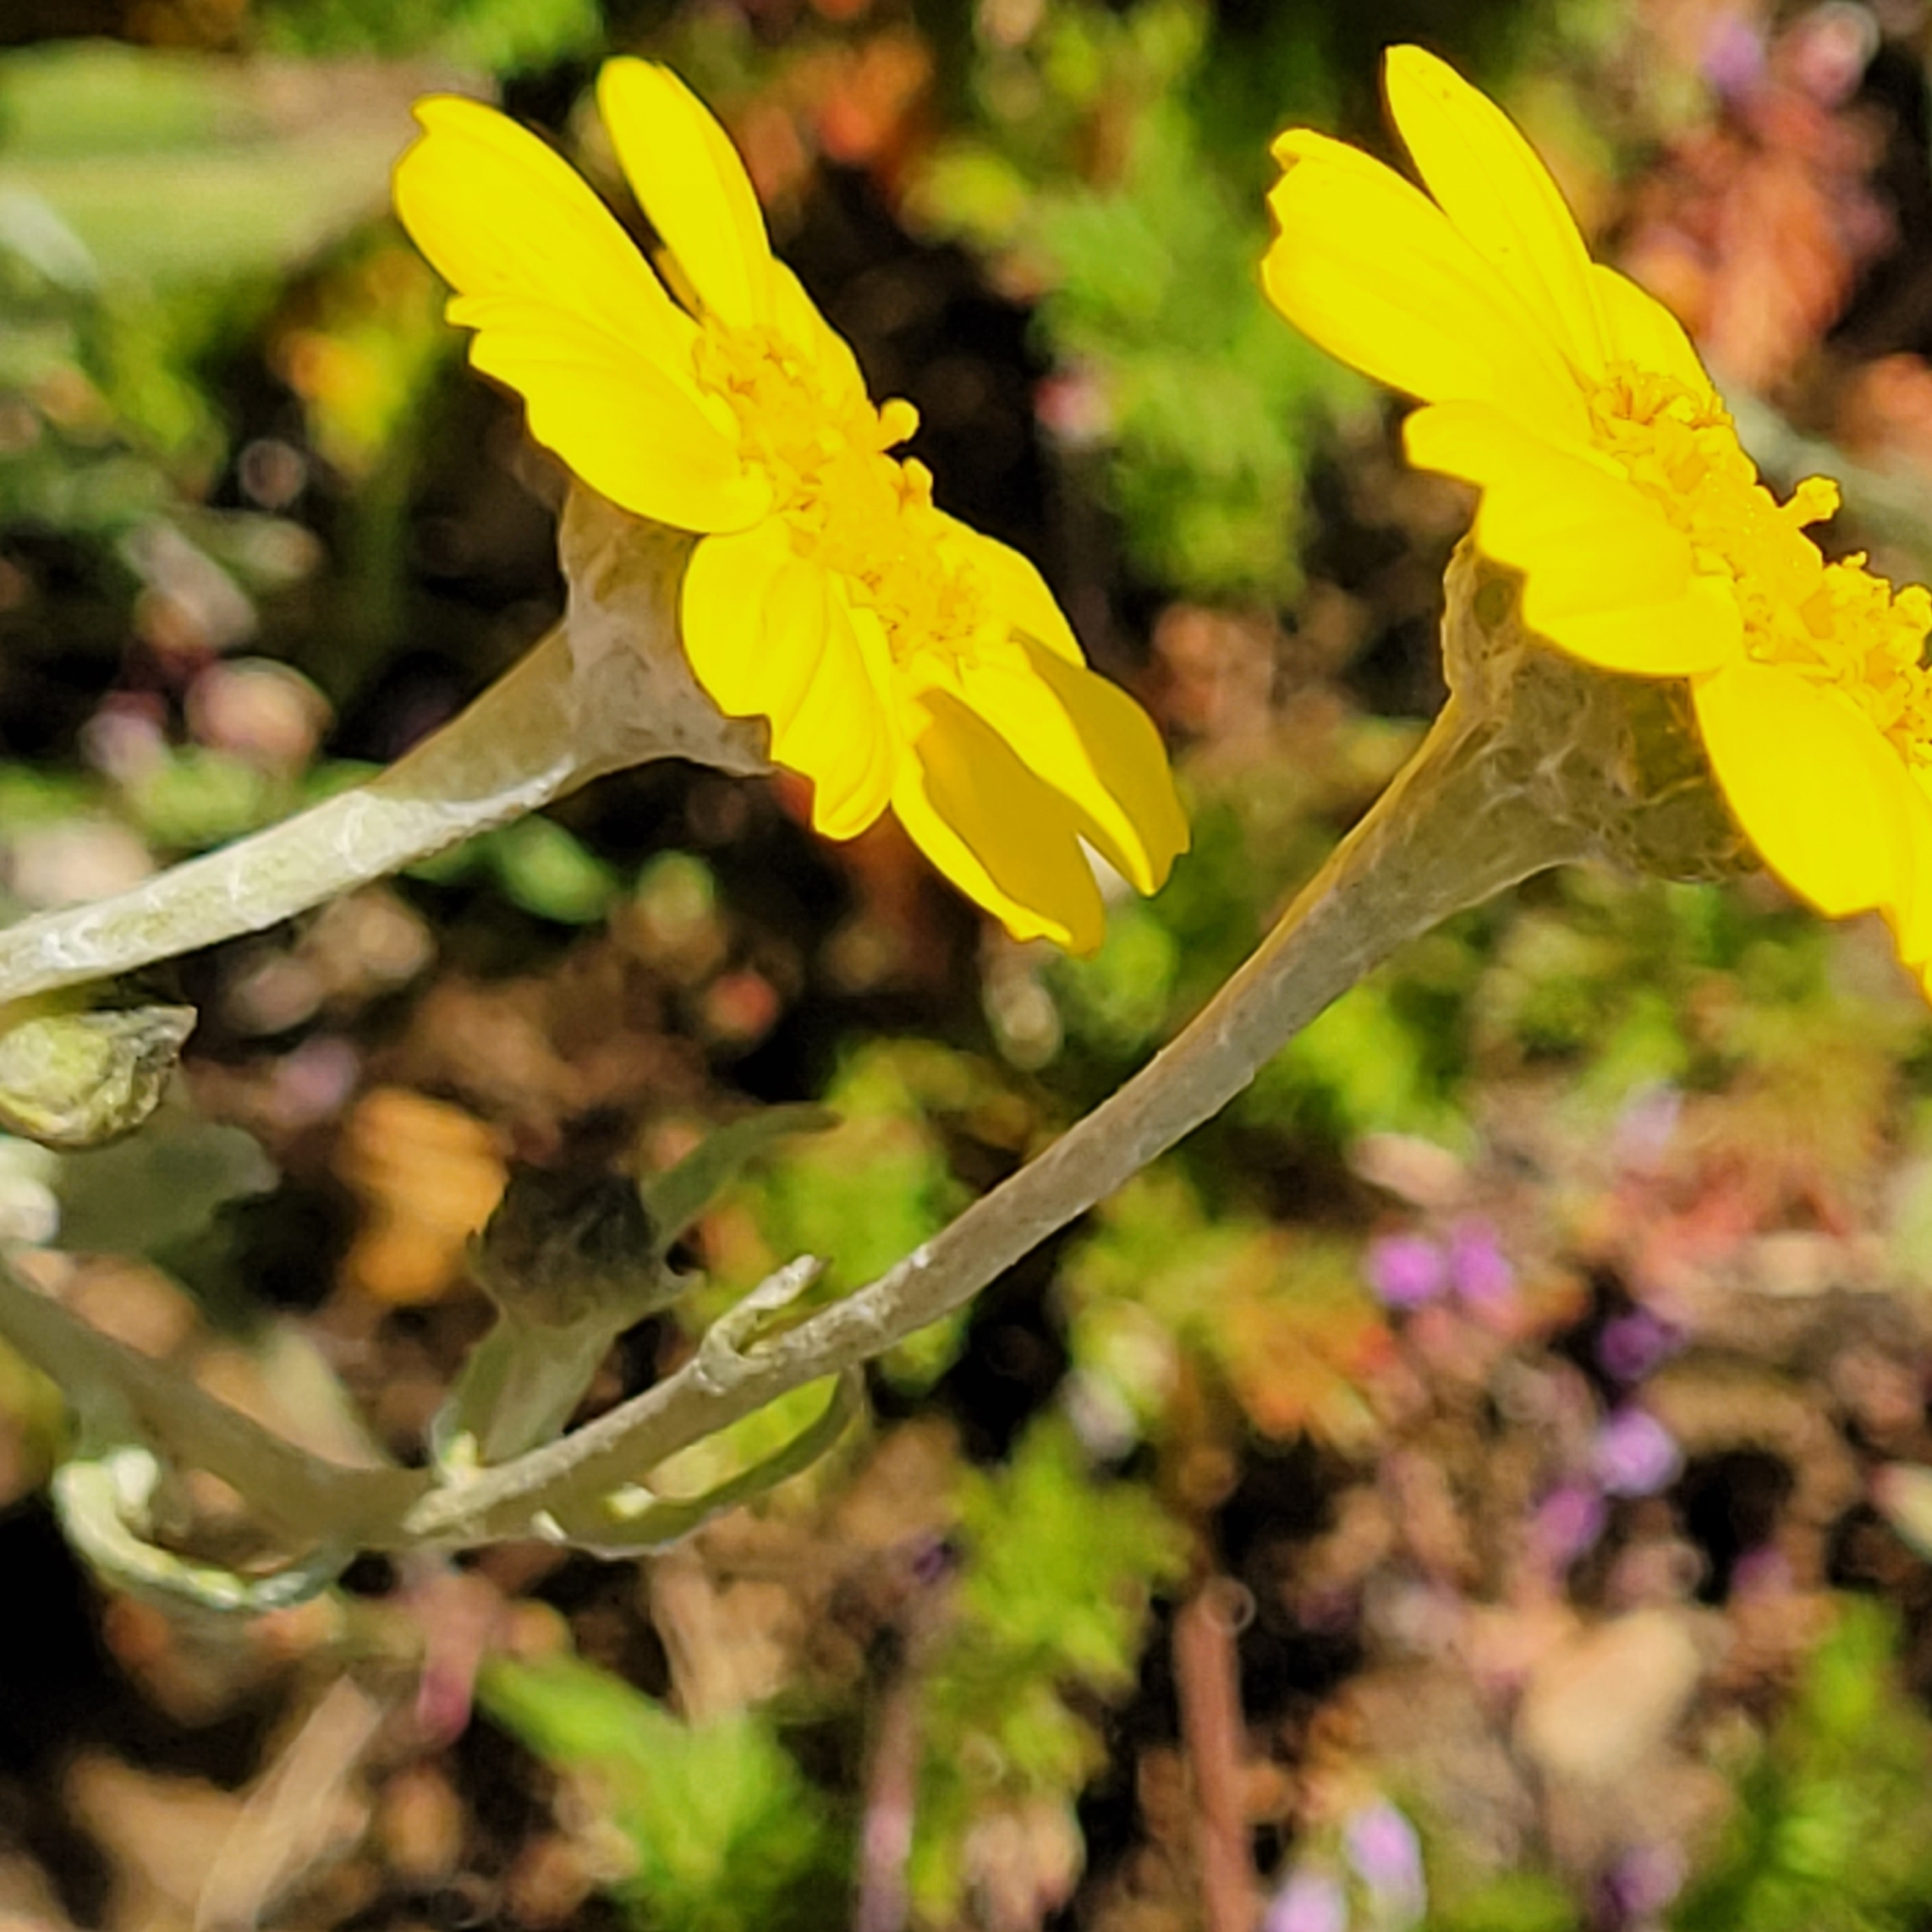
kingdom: Plantae
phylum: Tracheophyta
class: Magnoliopsida
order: Asterales
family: Asteraceae
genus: Monolopia
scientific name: Monolopia lanceolata
